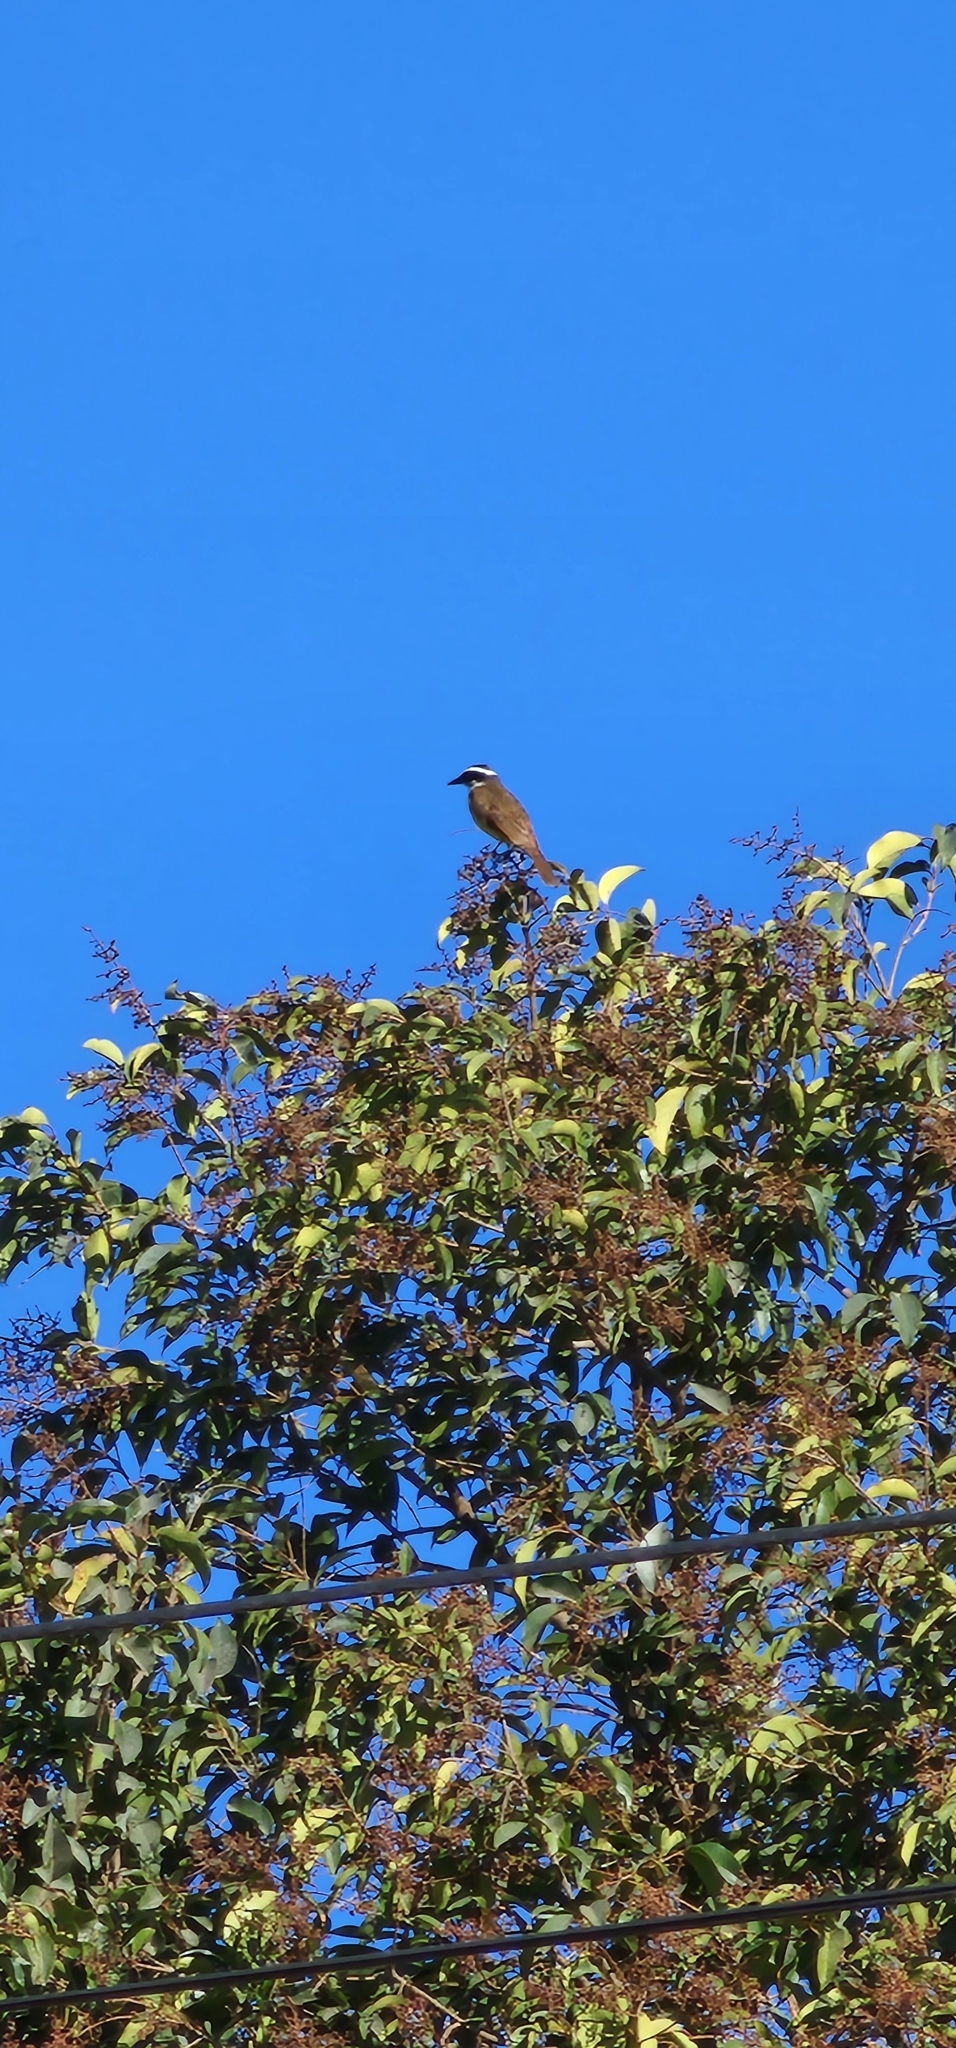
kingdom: Animalia
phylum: Chordata
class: Aves
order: Passeriformes
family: Tyrannidae
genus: Pitangus
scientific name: Pitangus sulphuratus
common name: Great kiskadee
